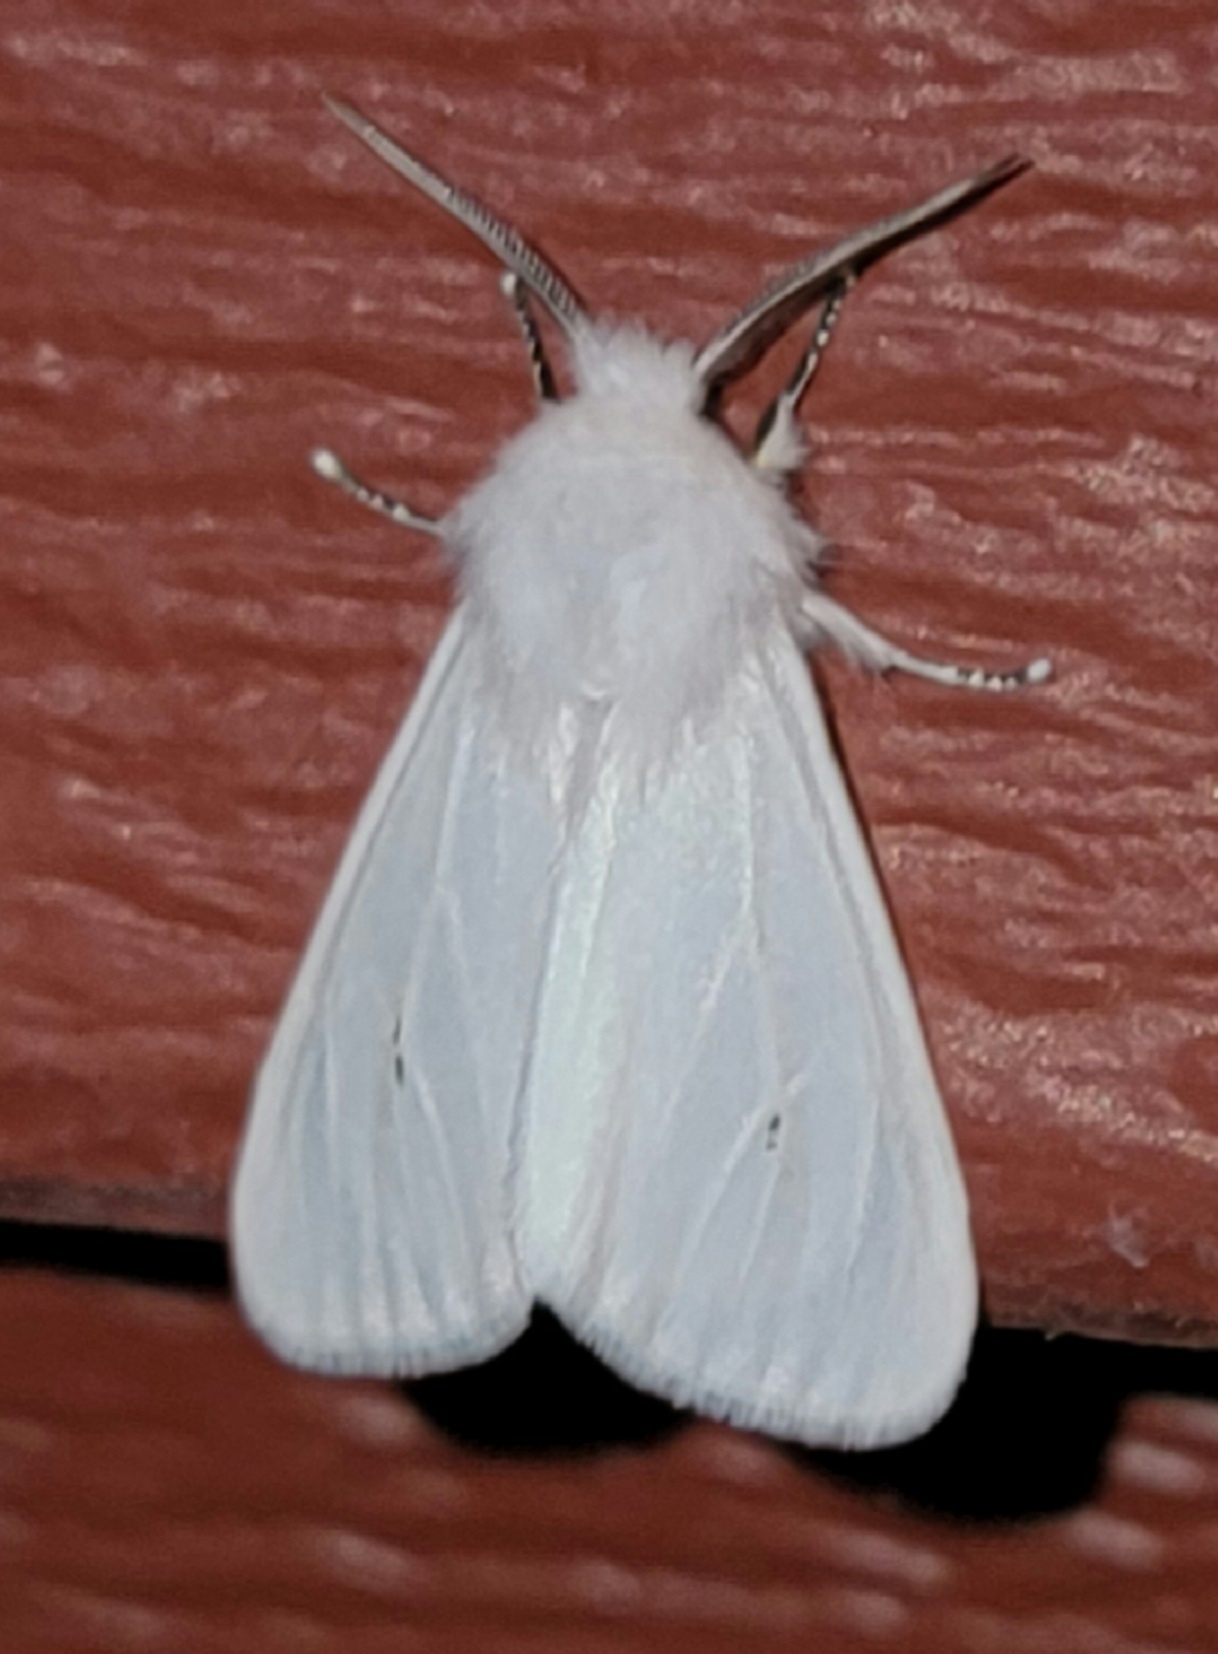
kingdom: Animalia
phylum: Arthropoda
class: Insecta
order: Lepidoptera
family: Erebidae
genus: Spilosoma
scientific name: Spilosoma virginica
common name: Virginia tiger moth
